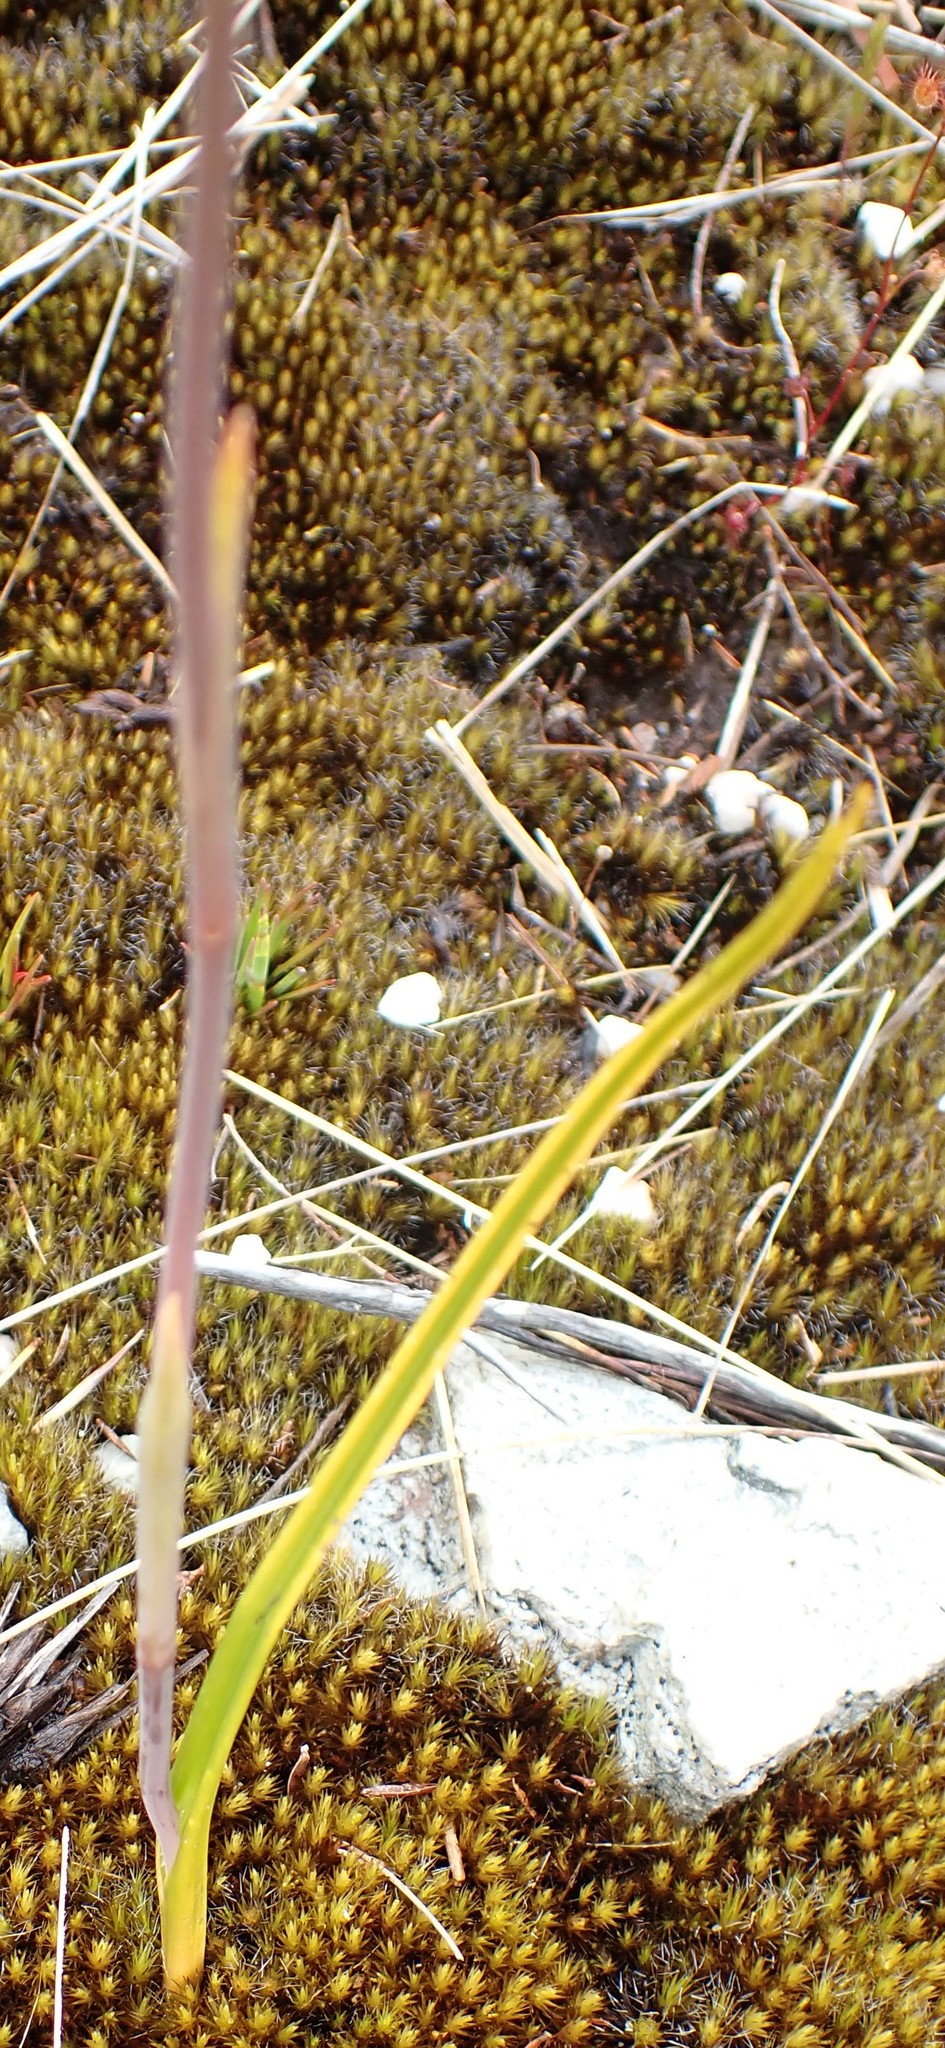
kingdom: Plantae
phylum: Tracheophyta
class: Liliopsida
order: Asparagales
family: Orchidaceae
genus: Thelymitra
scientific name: Thelymitra longiloba
